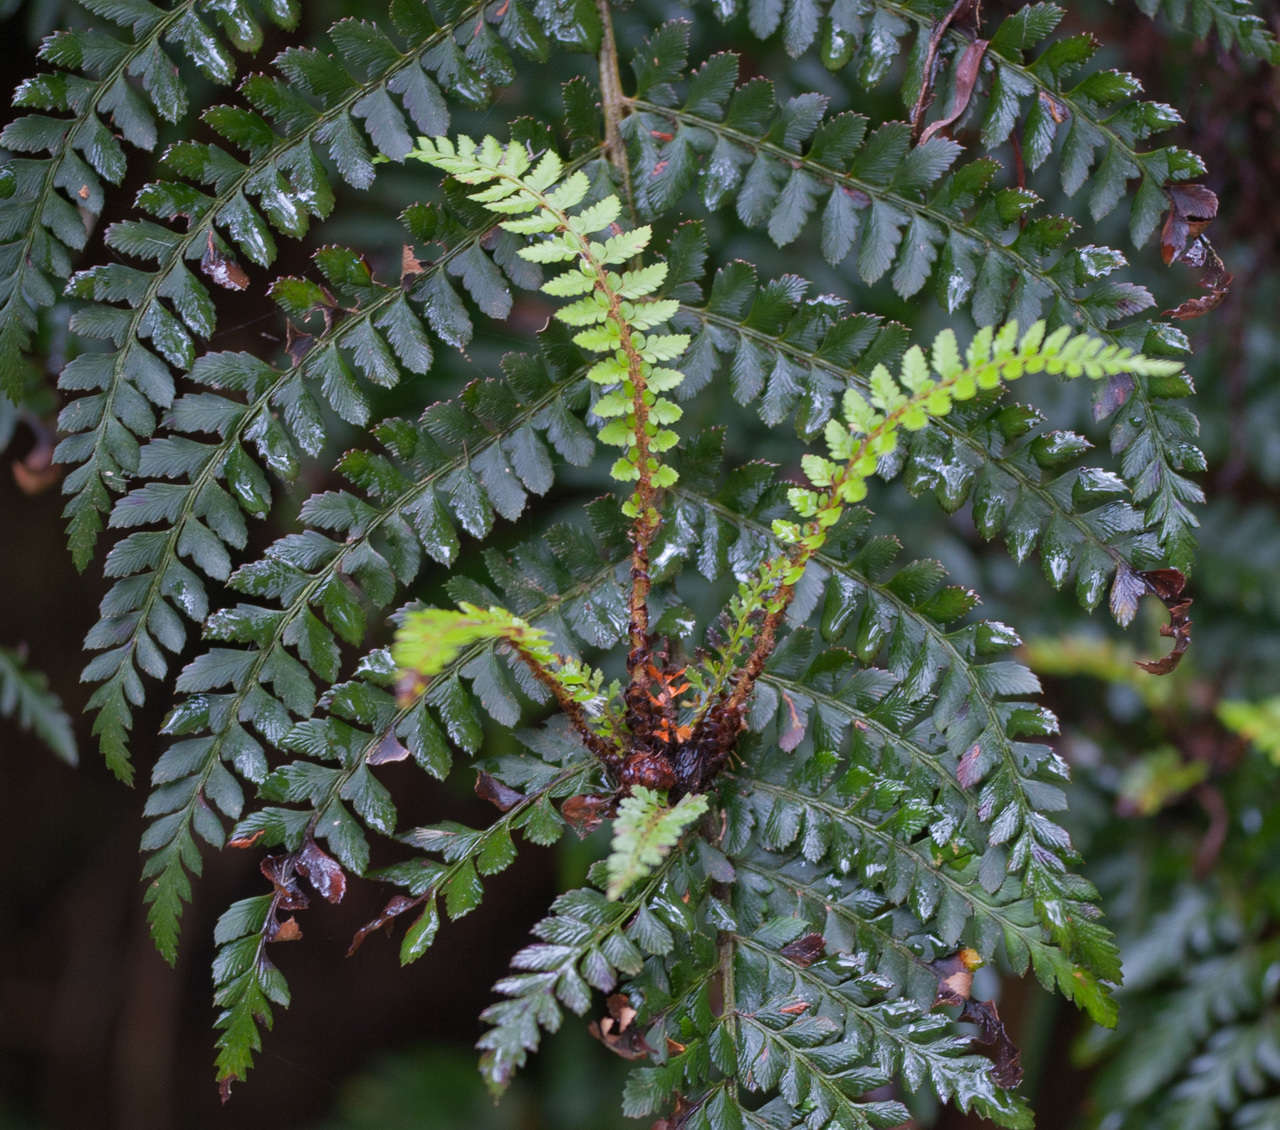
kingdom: Plantae
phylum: Tracheophyta
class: Polypodiopsida
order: Polypodiales
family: Dryopteridaceae
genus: Polystichum
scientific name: Polystichum proliferum
